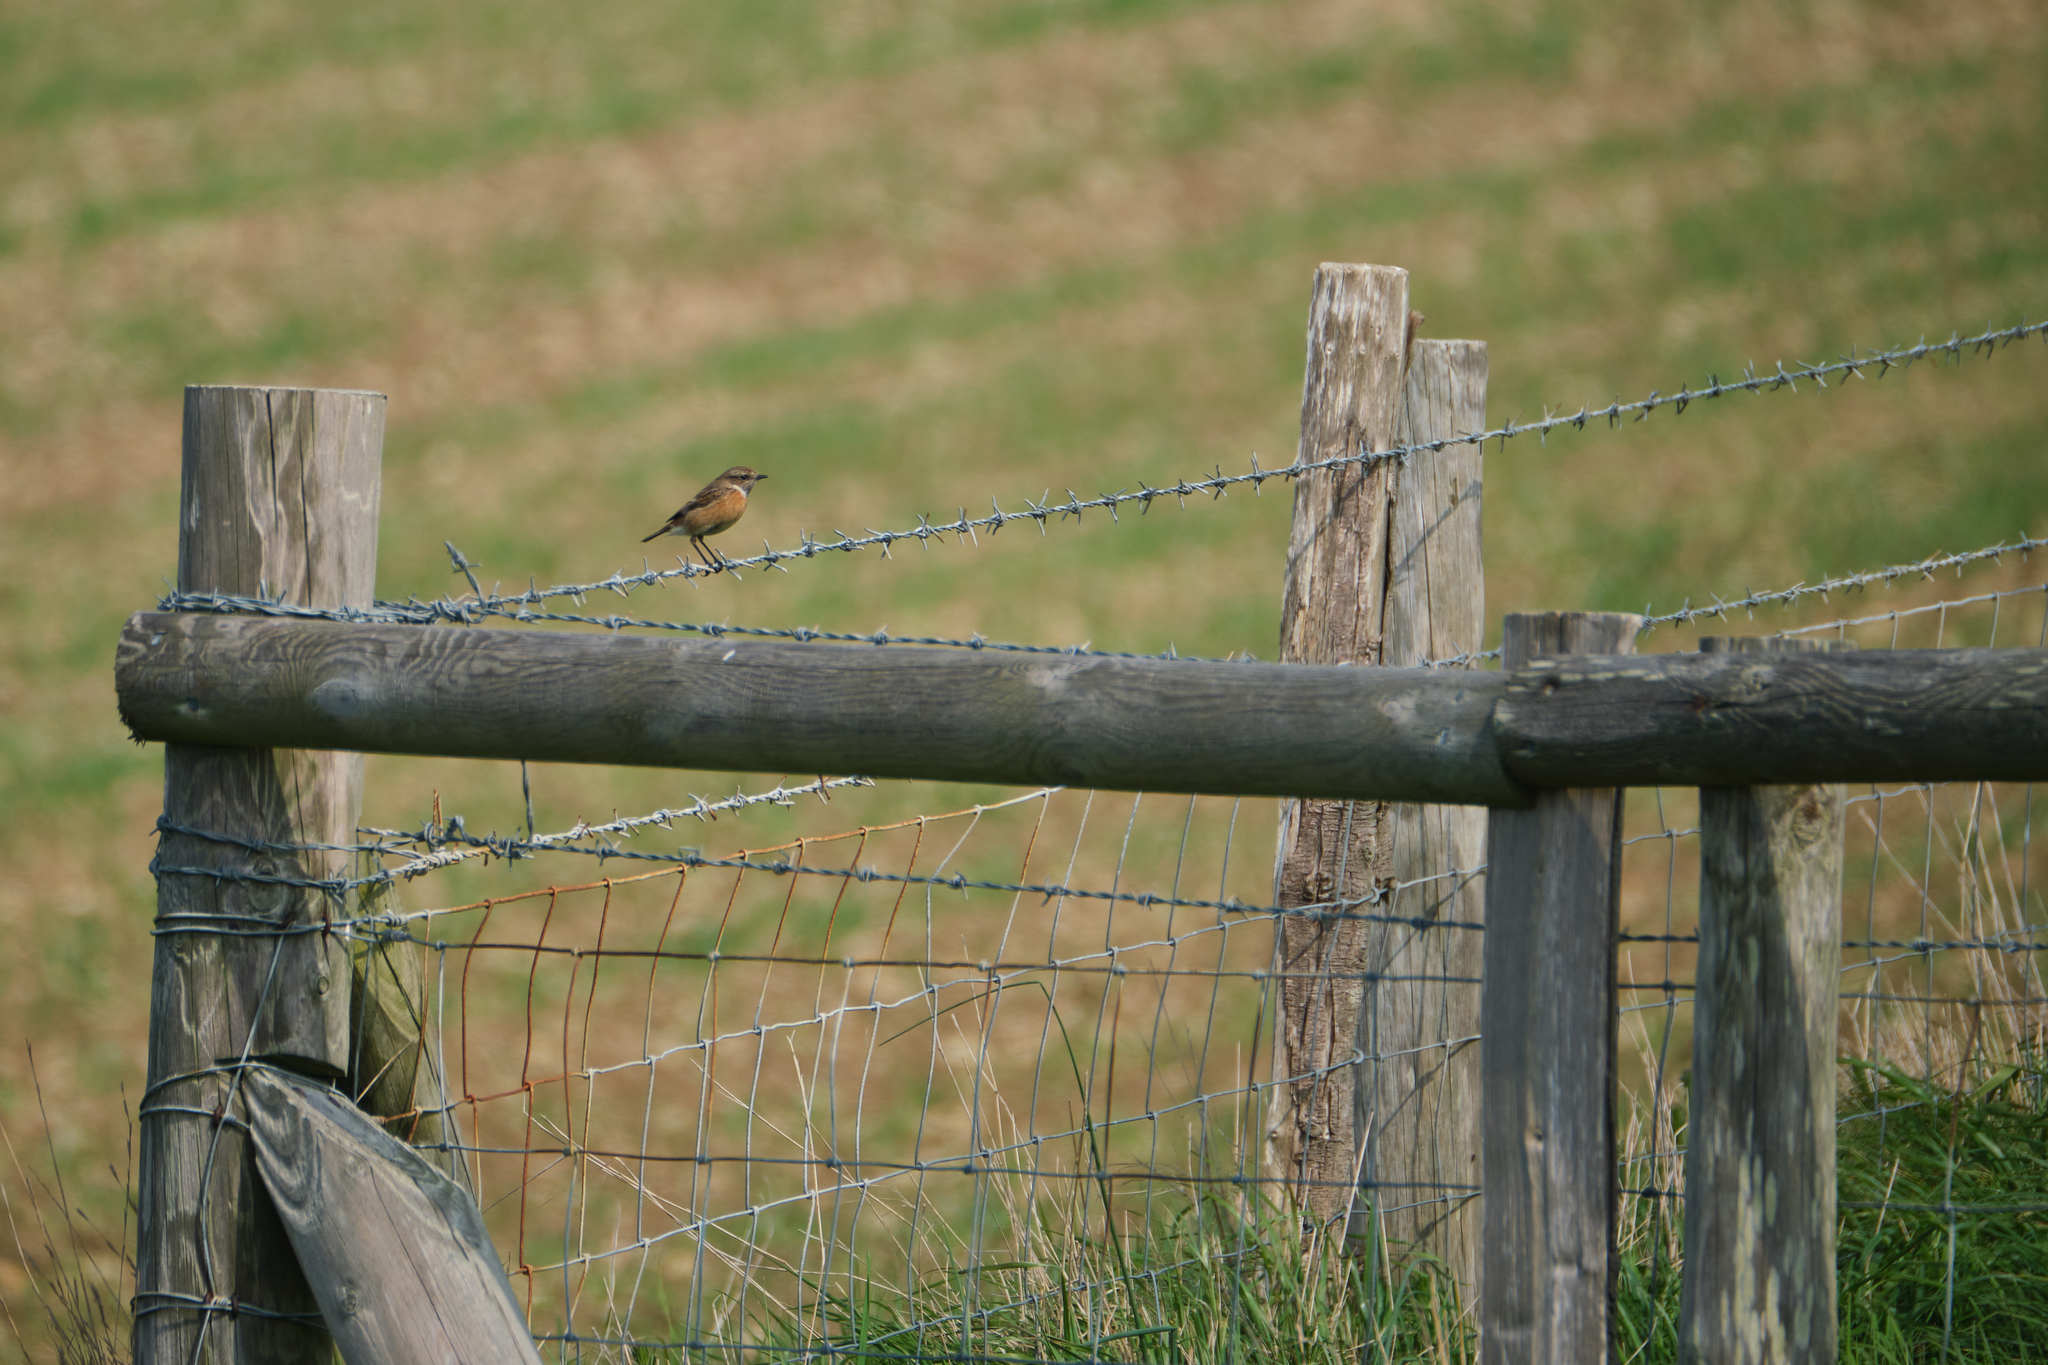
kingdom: Animalia
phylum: Chordata
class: Aves
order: Passeriformes
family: Muscicapidae
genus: Saxicola
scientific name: Saxicola rubicola
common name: European stonechat
